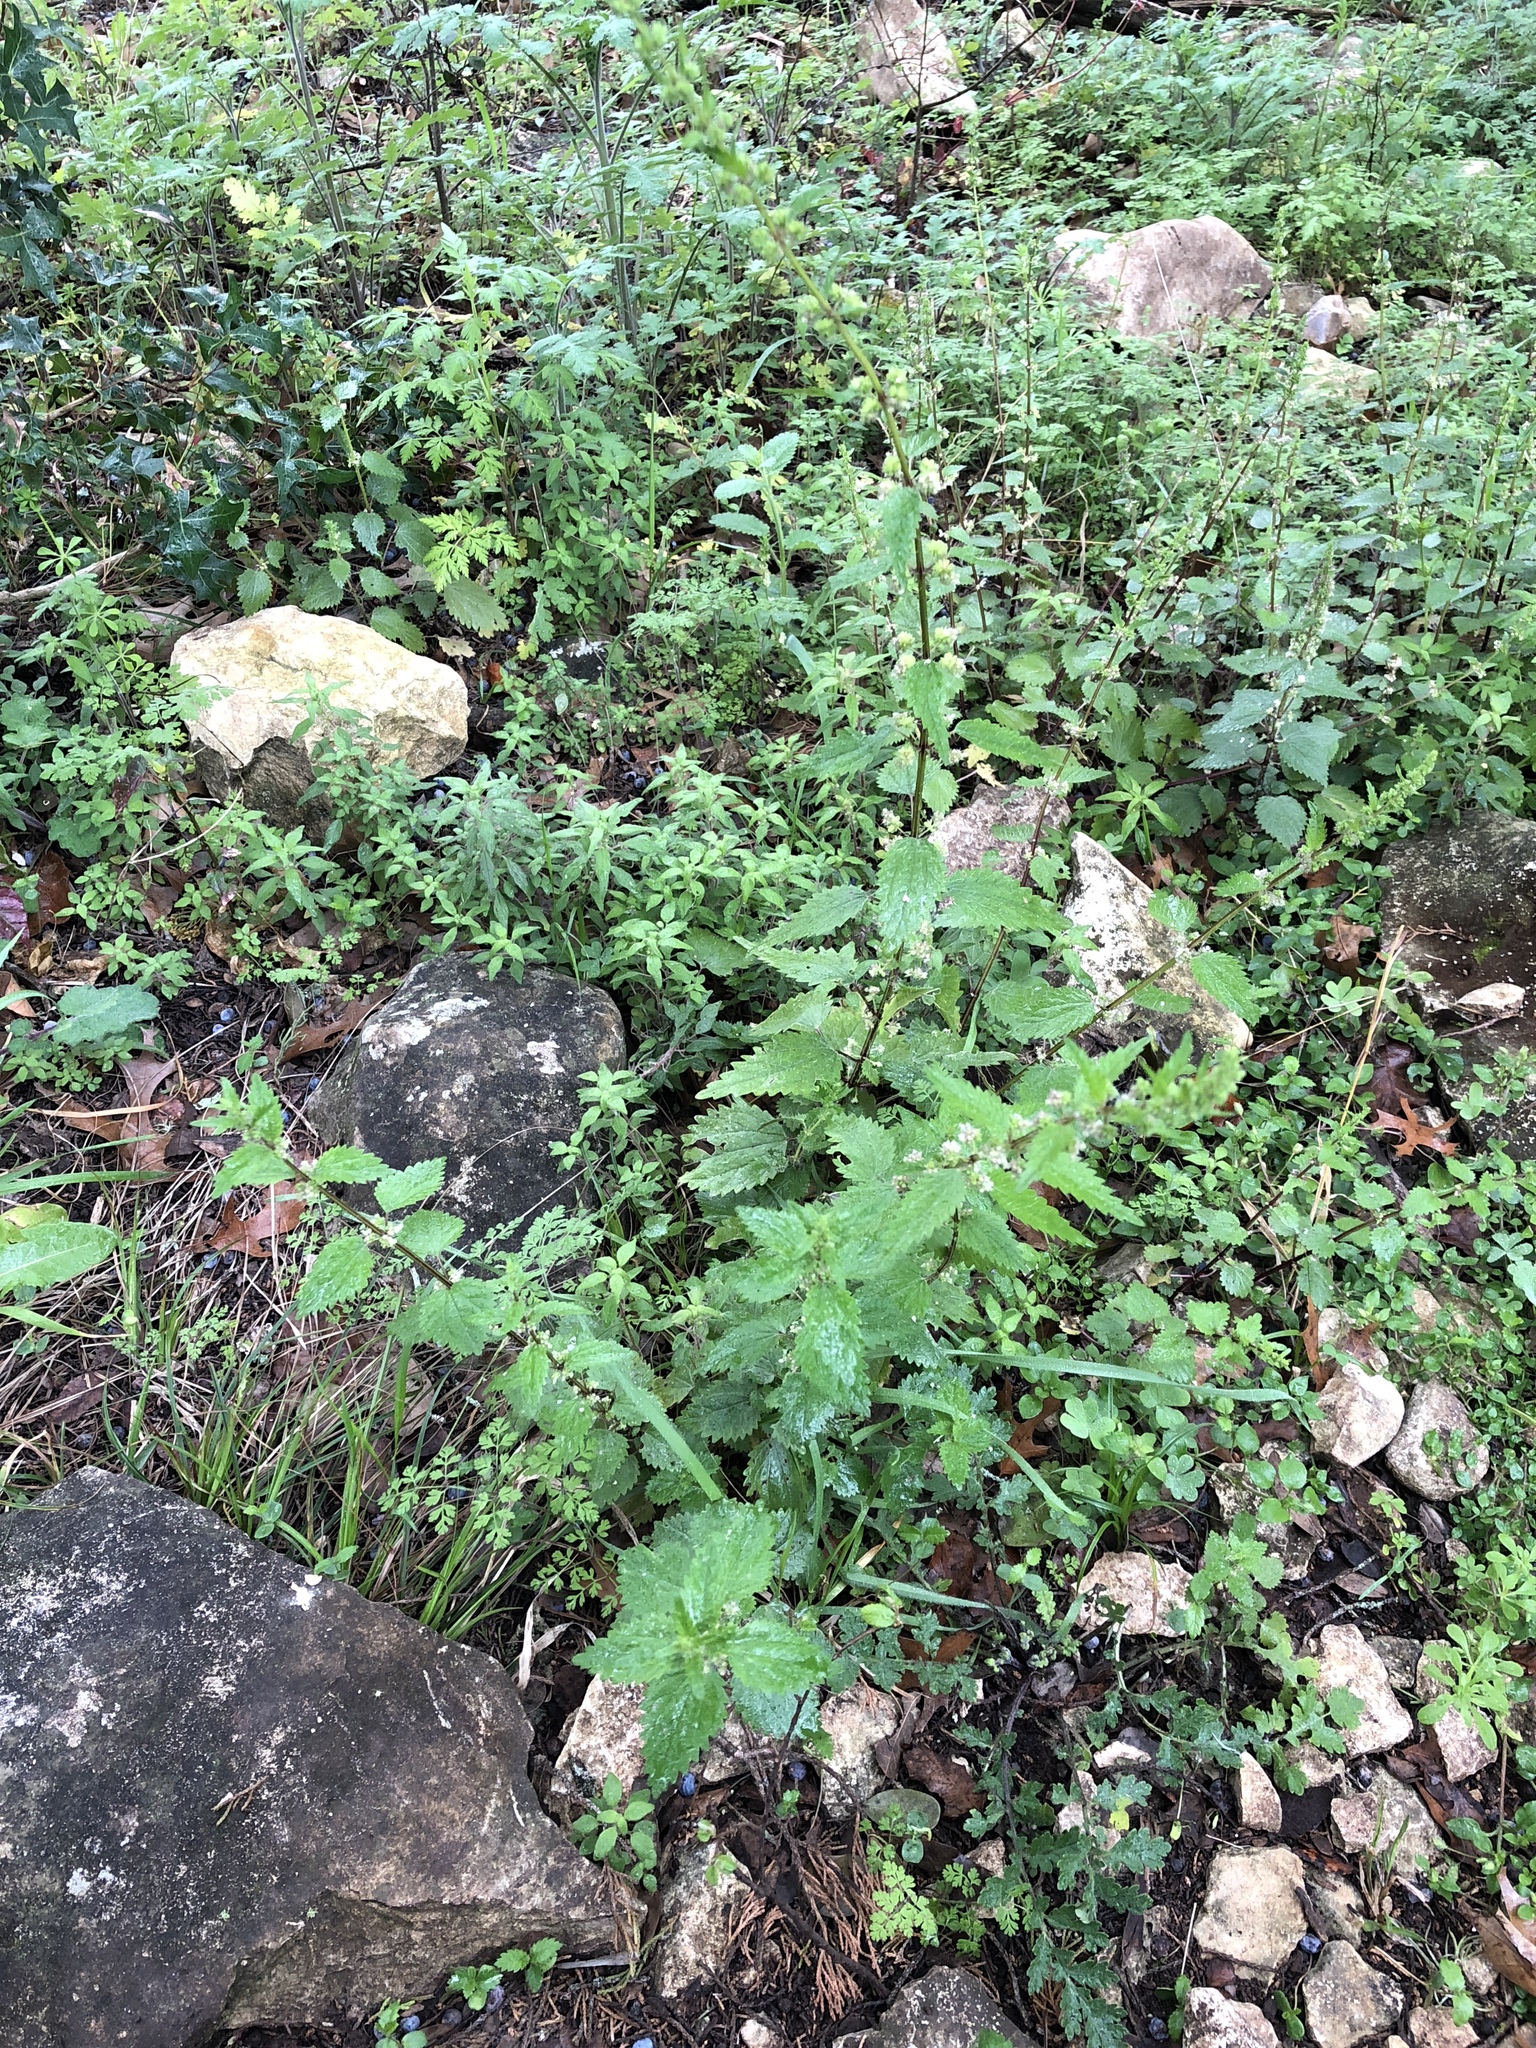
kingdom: Plantae
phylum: Tracheophyta
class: Magnoliopsida
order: Rosales
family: Urticaceae
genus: Urtica
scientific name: Urtica chamaedryoides
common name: Heart-leaf nettle
